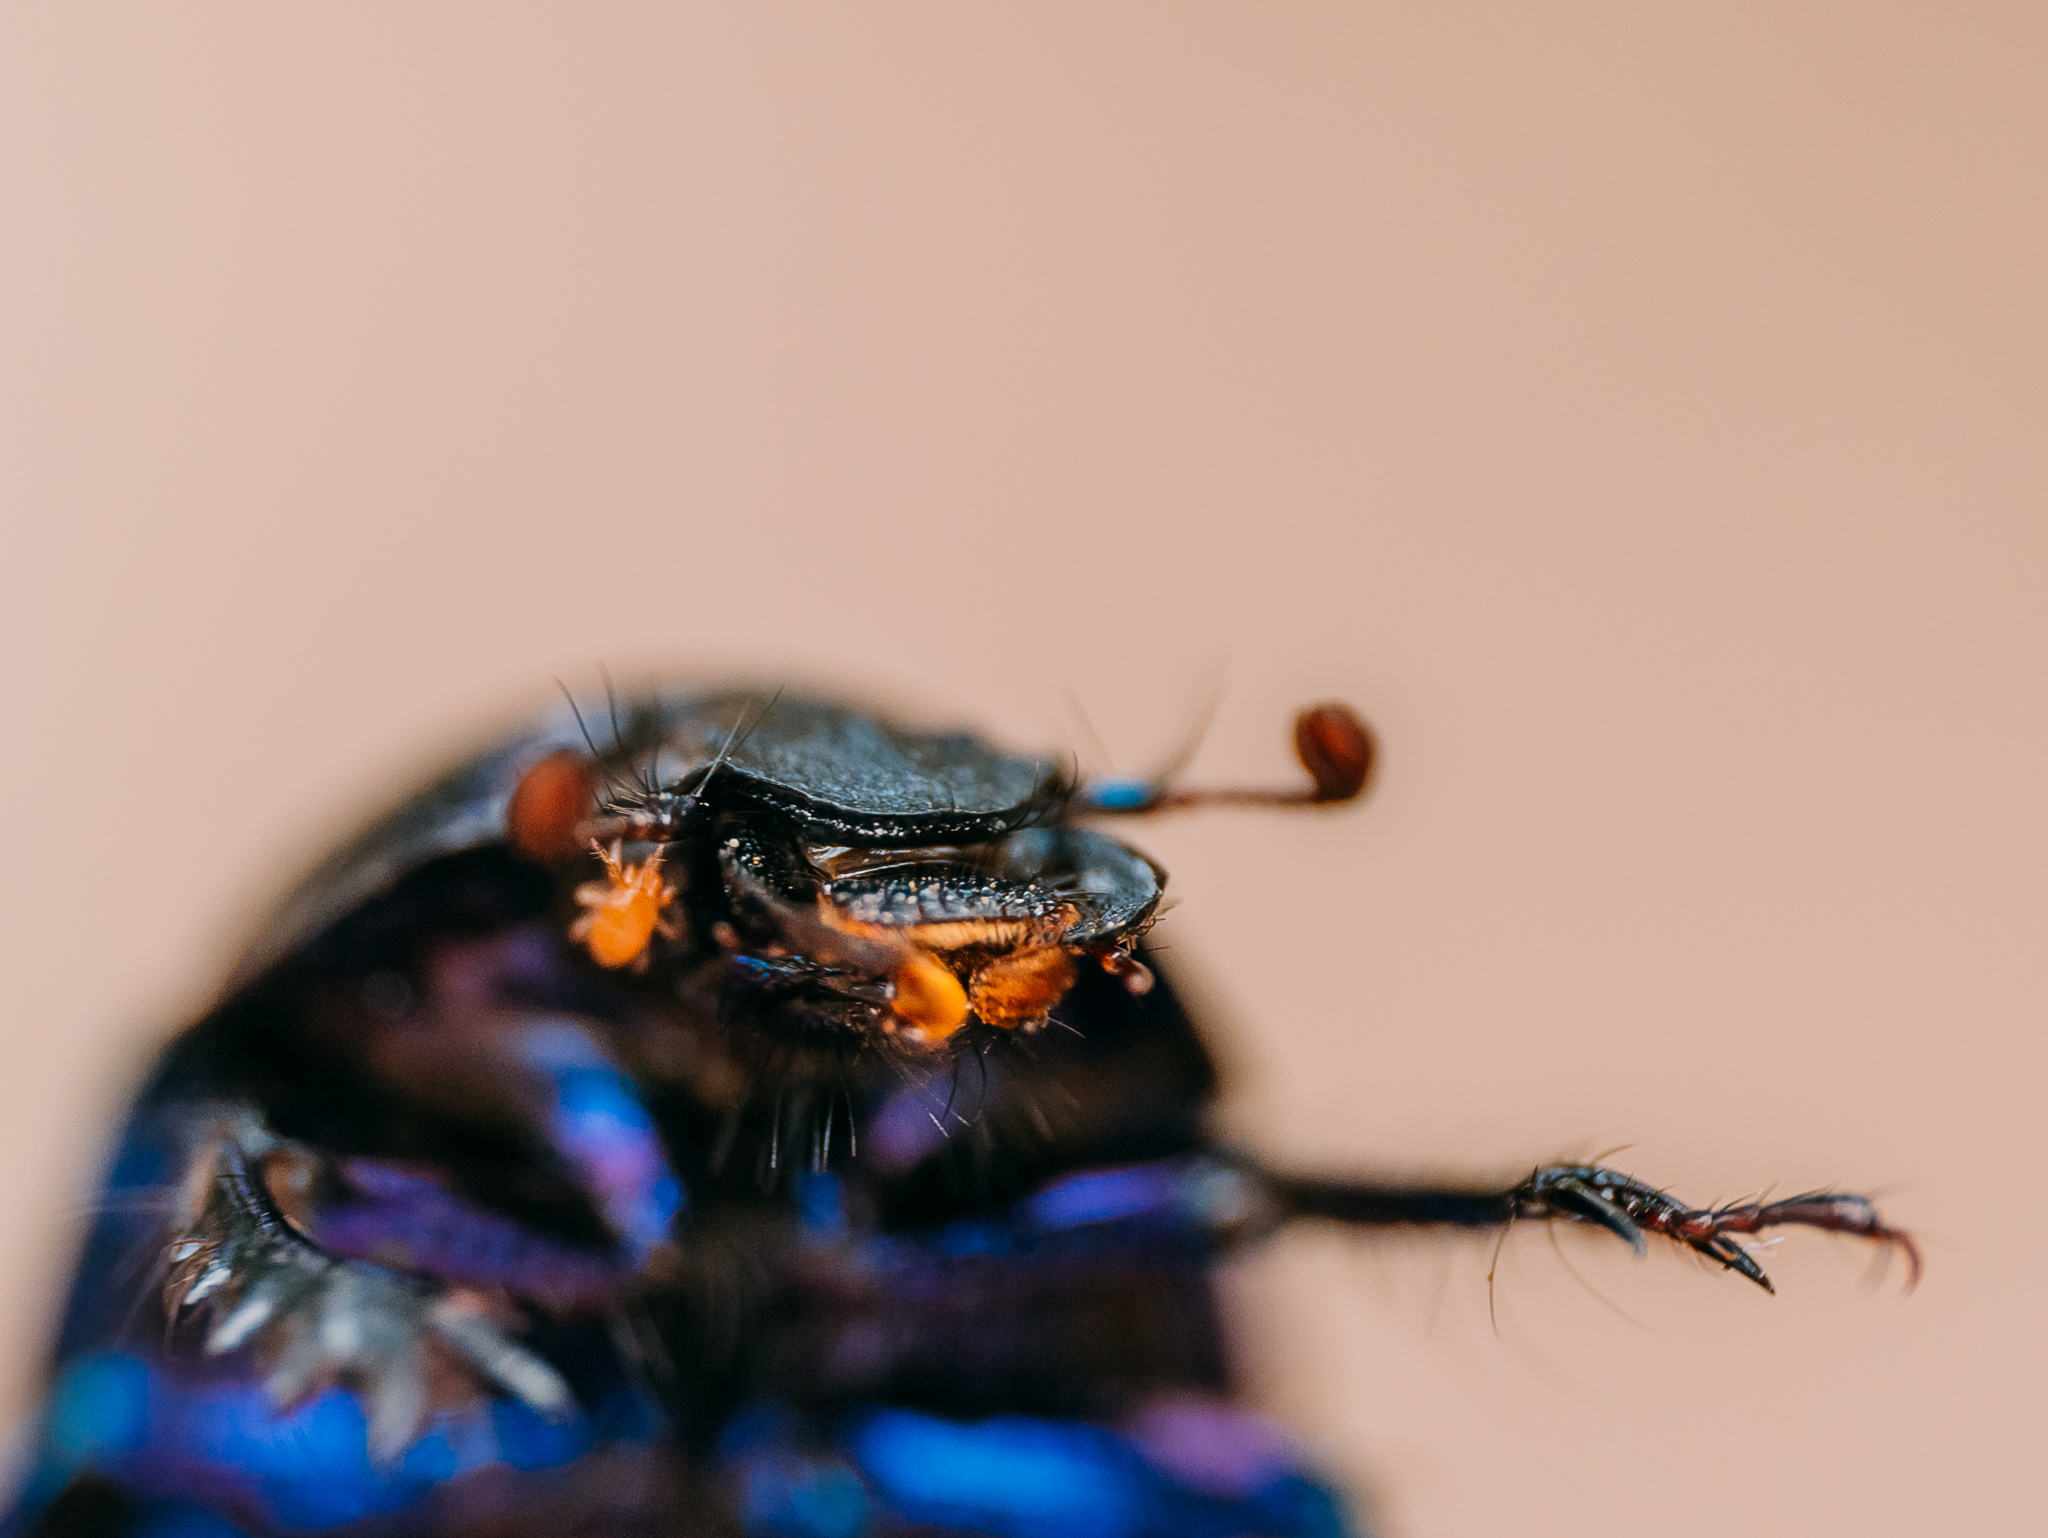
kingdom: Animalia
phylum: Arthropoda
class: Insecta
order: Coleoptera
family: Geotrupidae
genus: Anoplotrupes
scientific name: Anoplotrupes stercorosus
